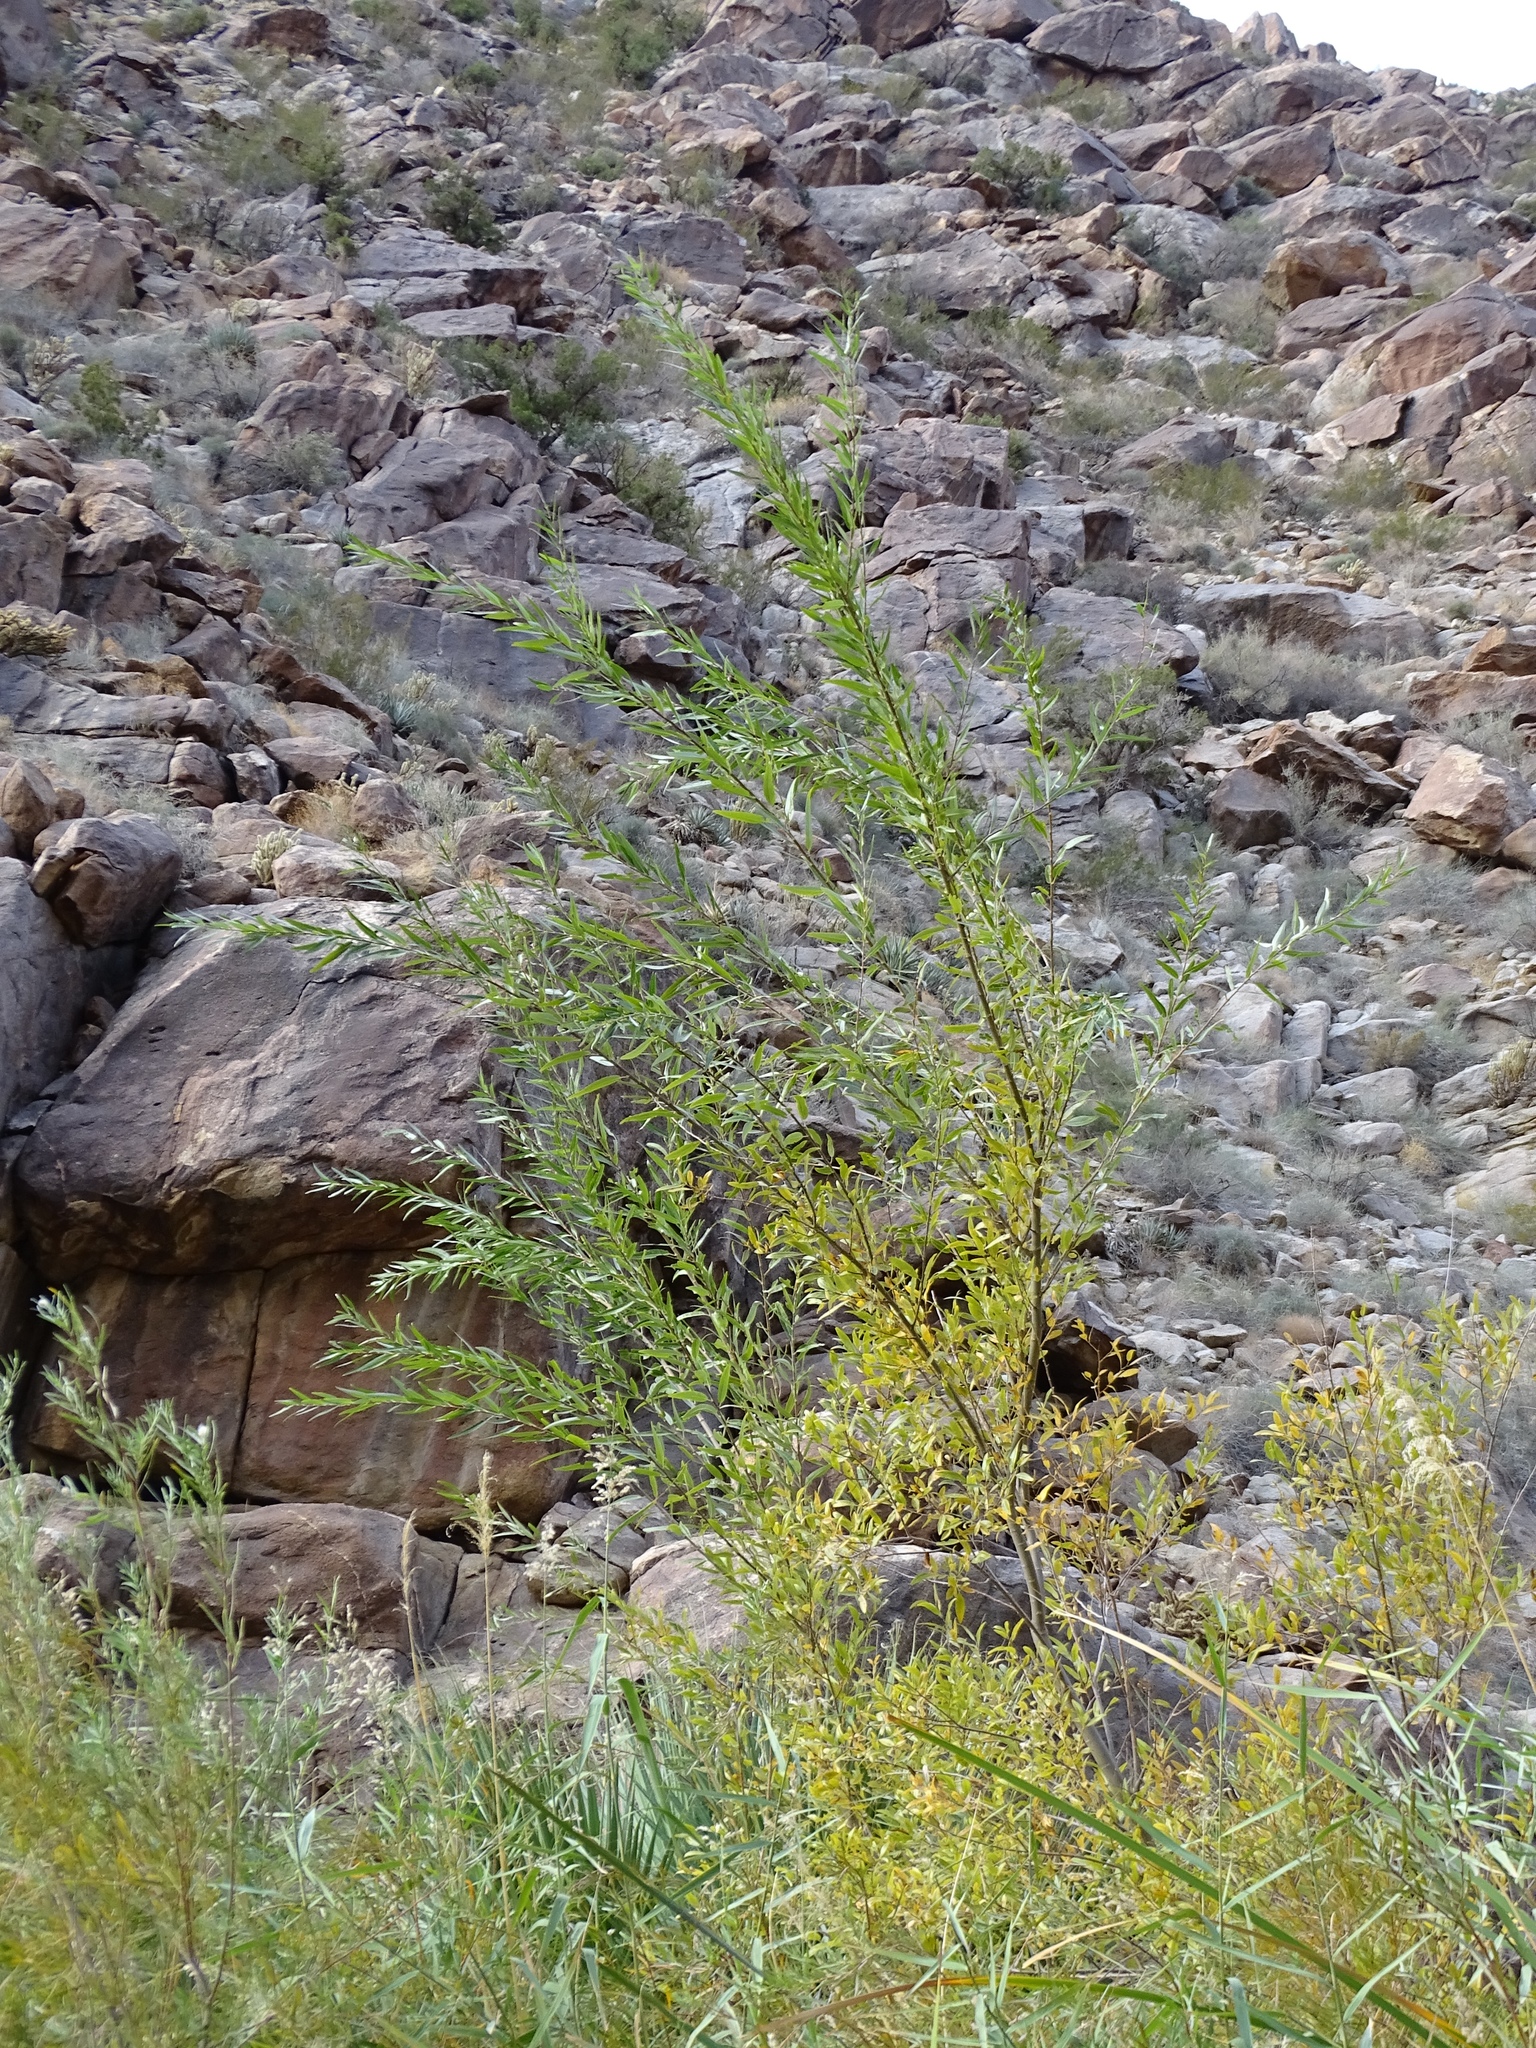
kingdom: Plantae
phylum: Tracheophyta
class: Magnoliopsida
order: Malpighiales
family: Salicaceae
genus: Salix
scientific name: Salix laevigata
